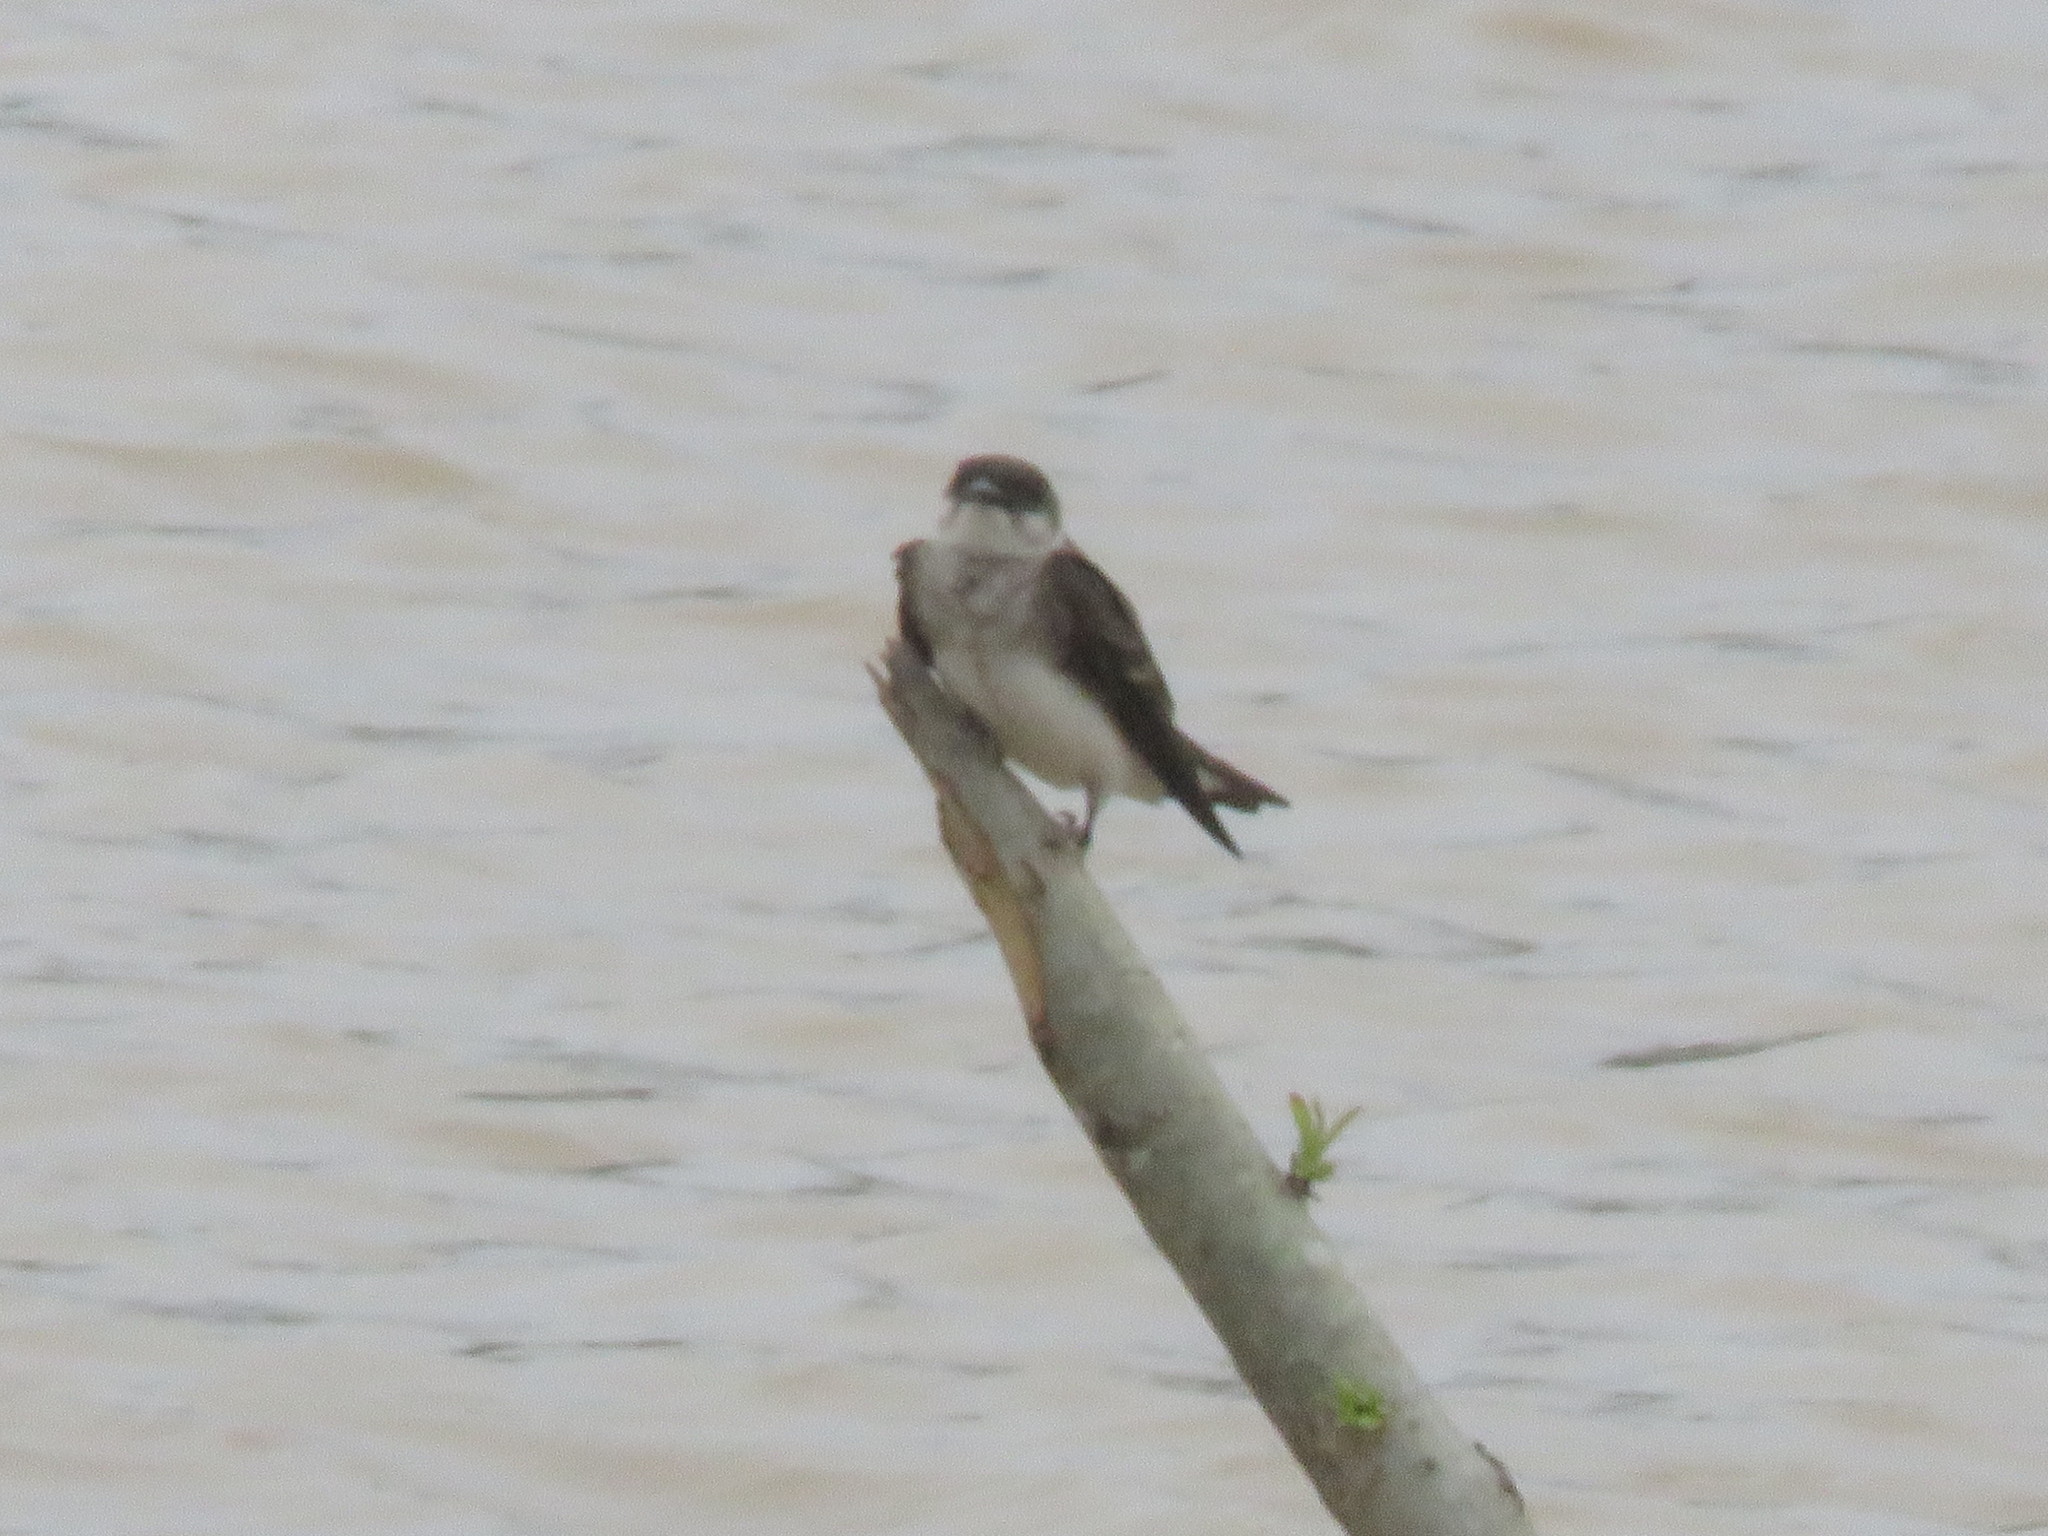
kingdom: Animalia
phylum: Chordata
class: Aves
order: Passeriformes
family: Hirundinidae
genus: Progne
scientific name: Progne tapera
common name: Brown-chested martin
